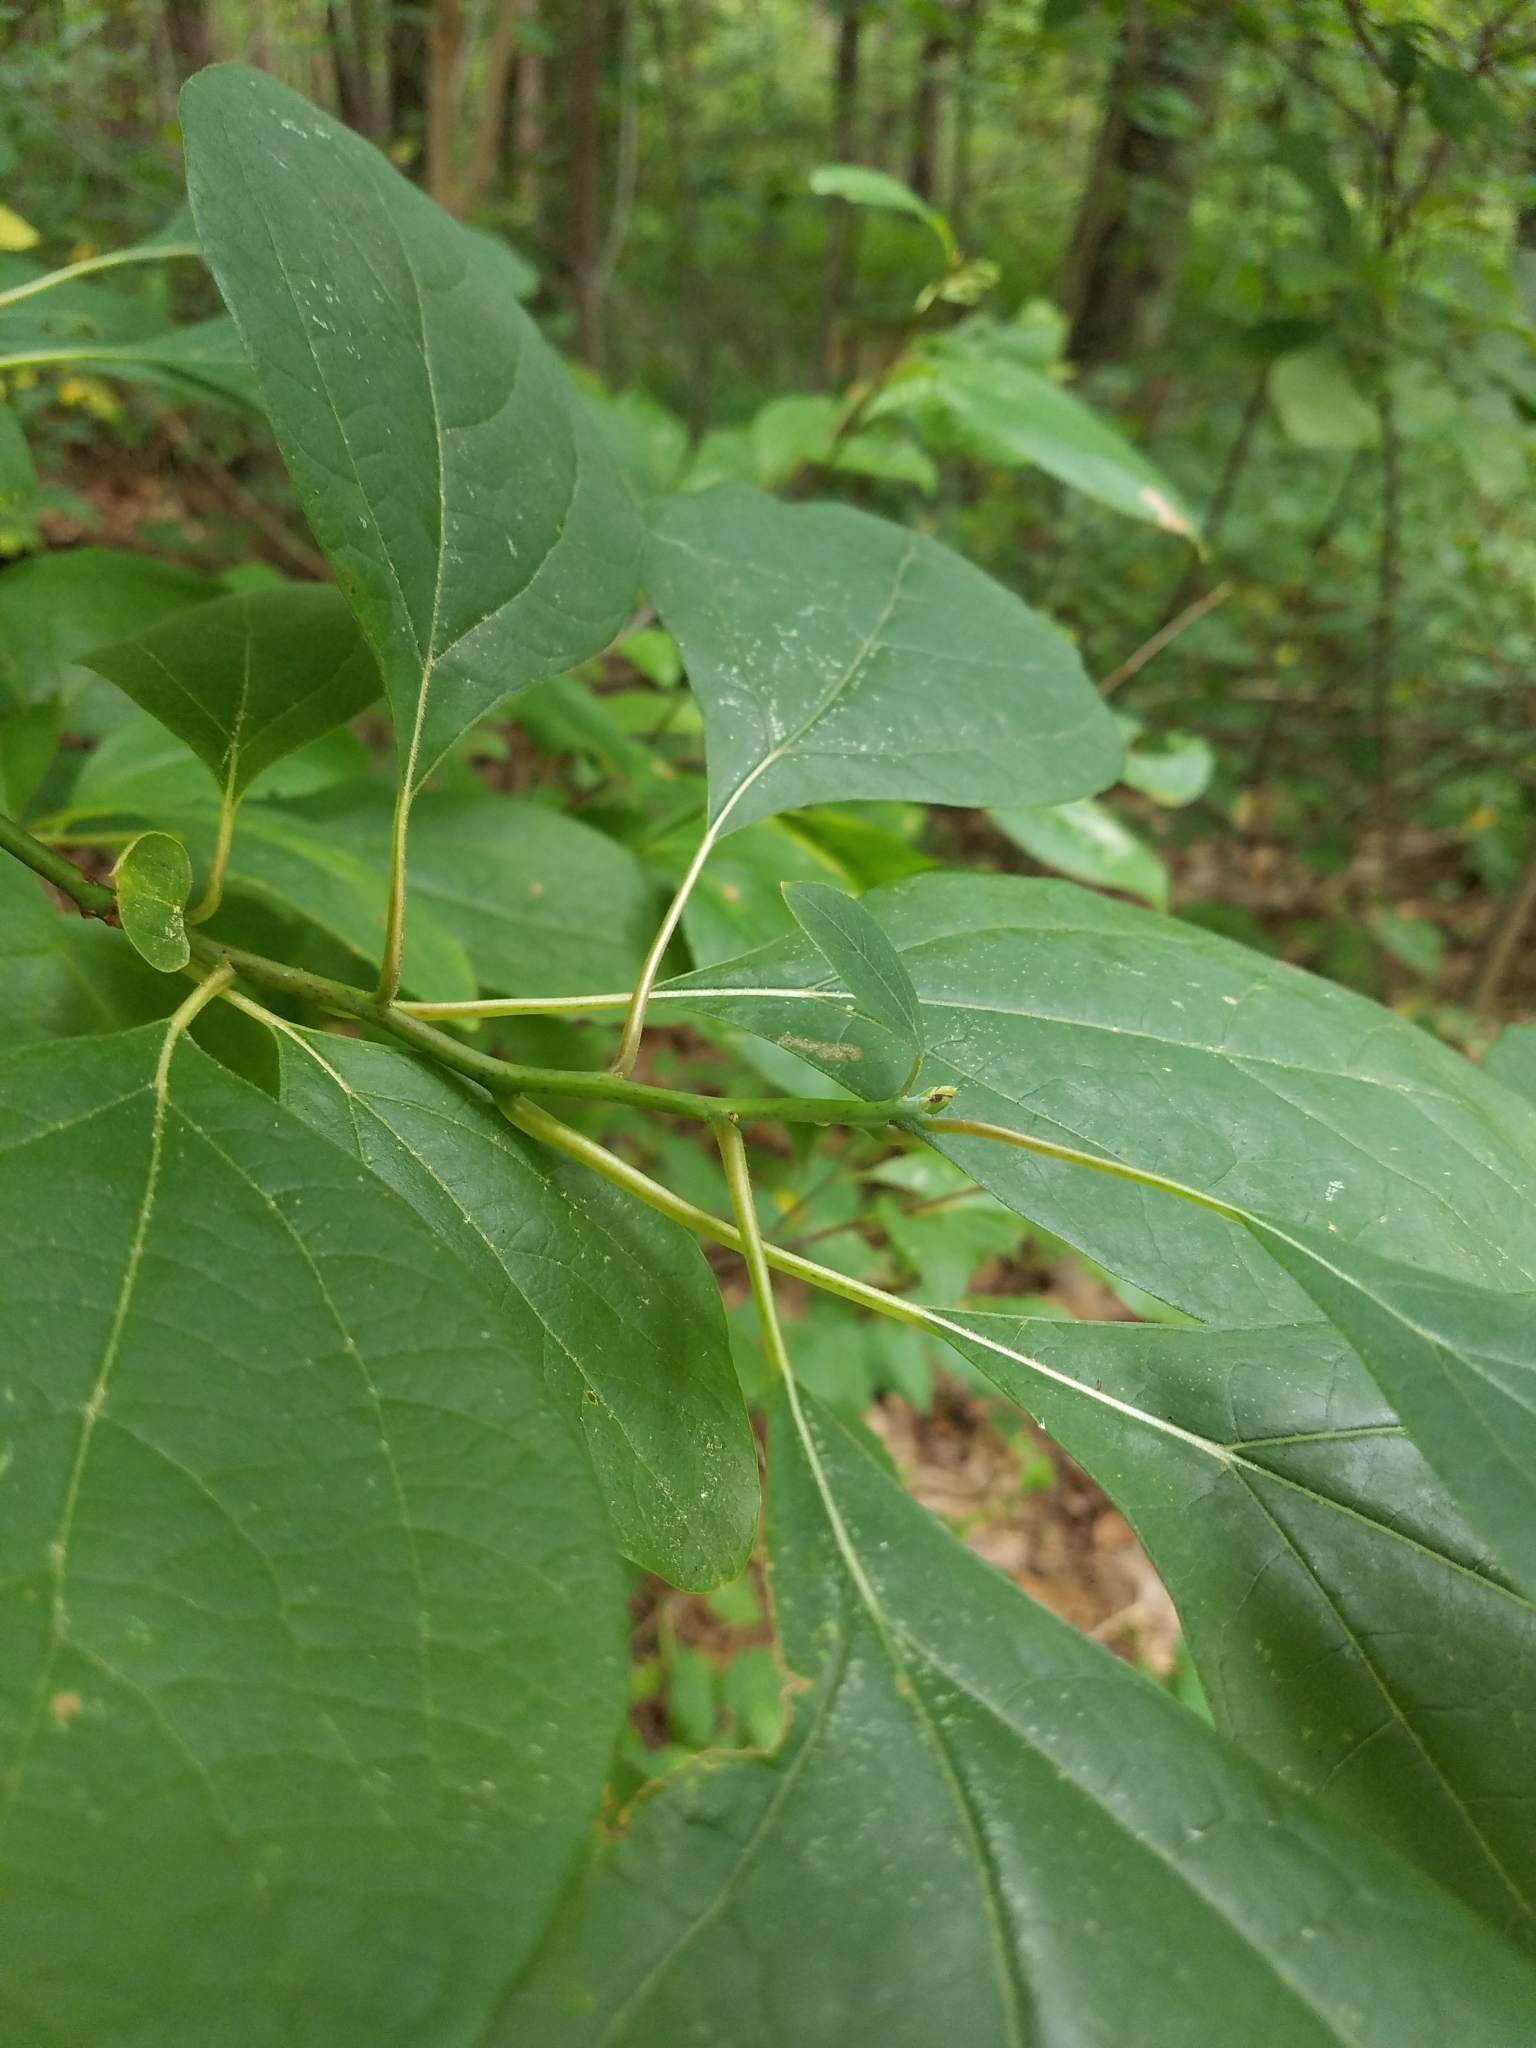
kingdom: Plantae
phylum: Tracheophyta
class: Magnoliopsida
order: Laurales
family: Lauraceae
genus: Sassafras
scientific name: Sassafras albidum
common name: Sassafras
